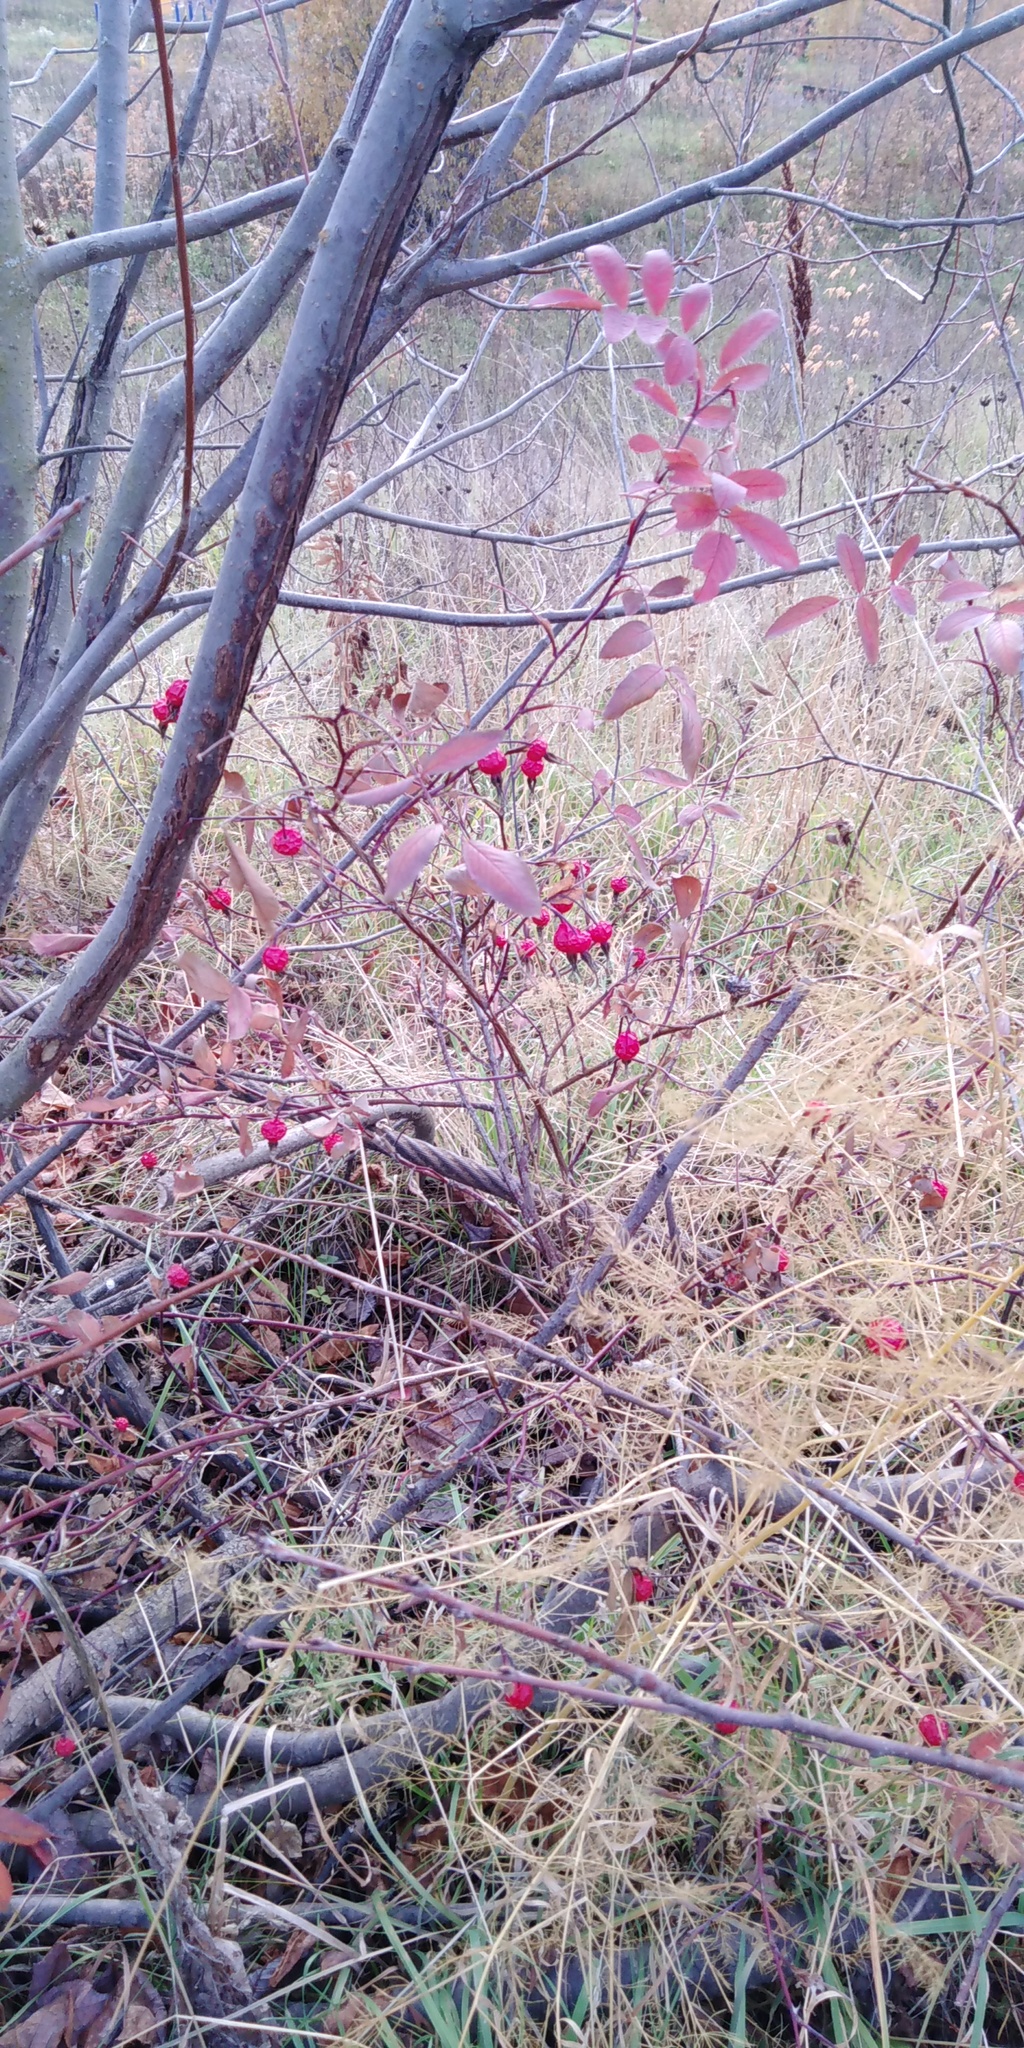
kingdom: Plantae
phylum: Tracheophyta
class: Magnoliopsida
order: Rosales
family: Rosaceae
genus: Rosa
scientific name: Rosa
